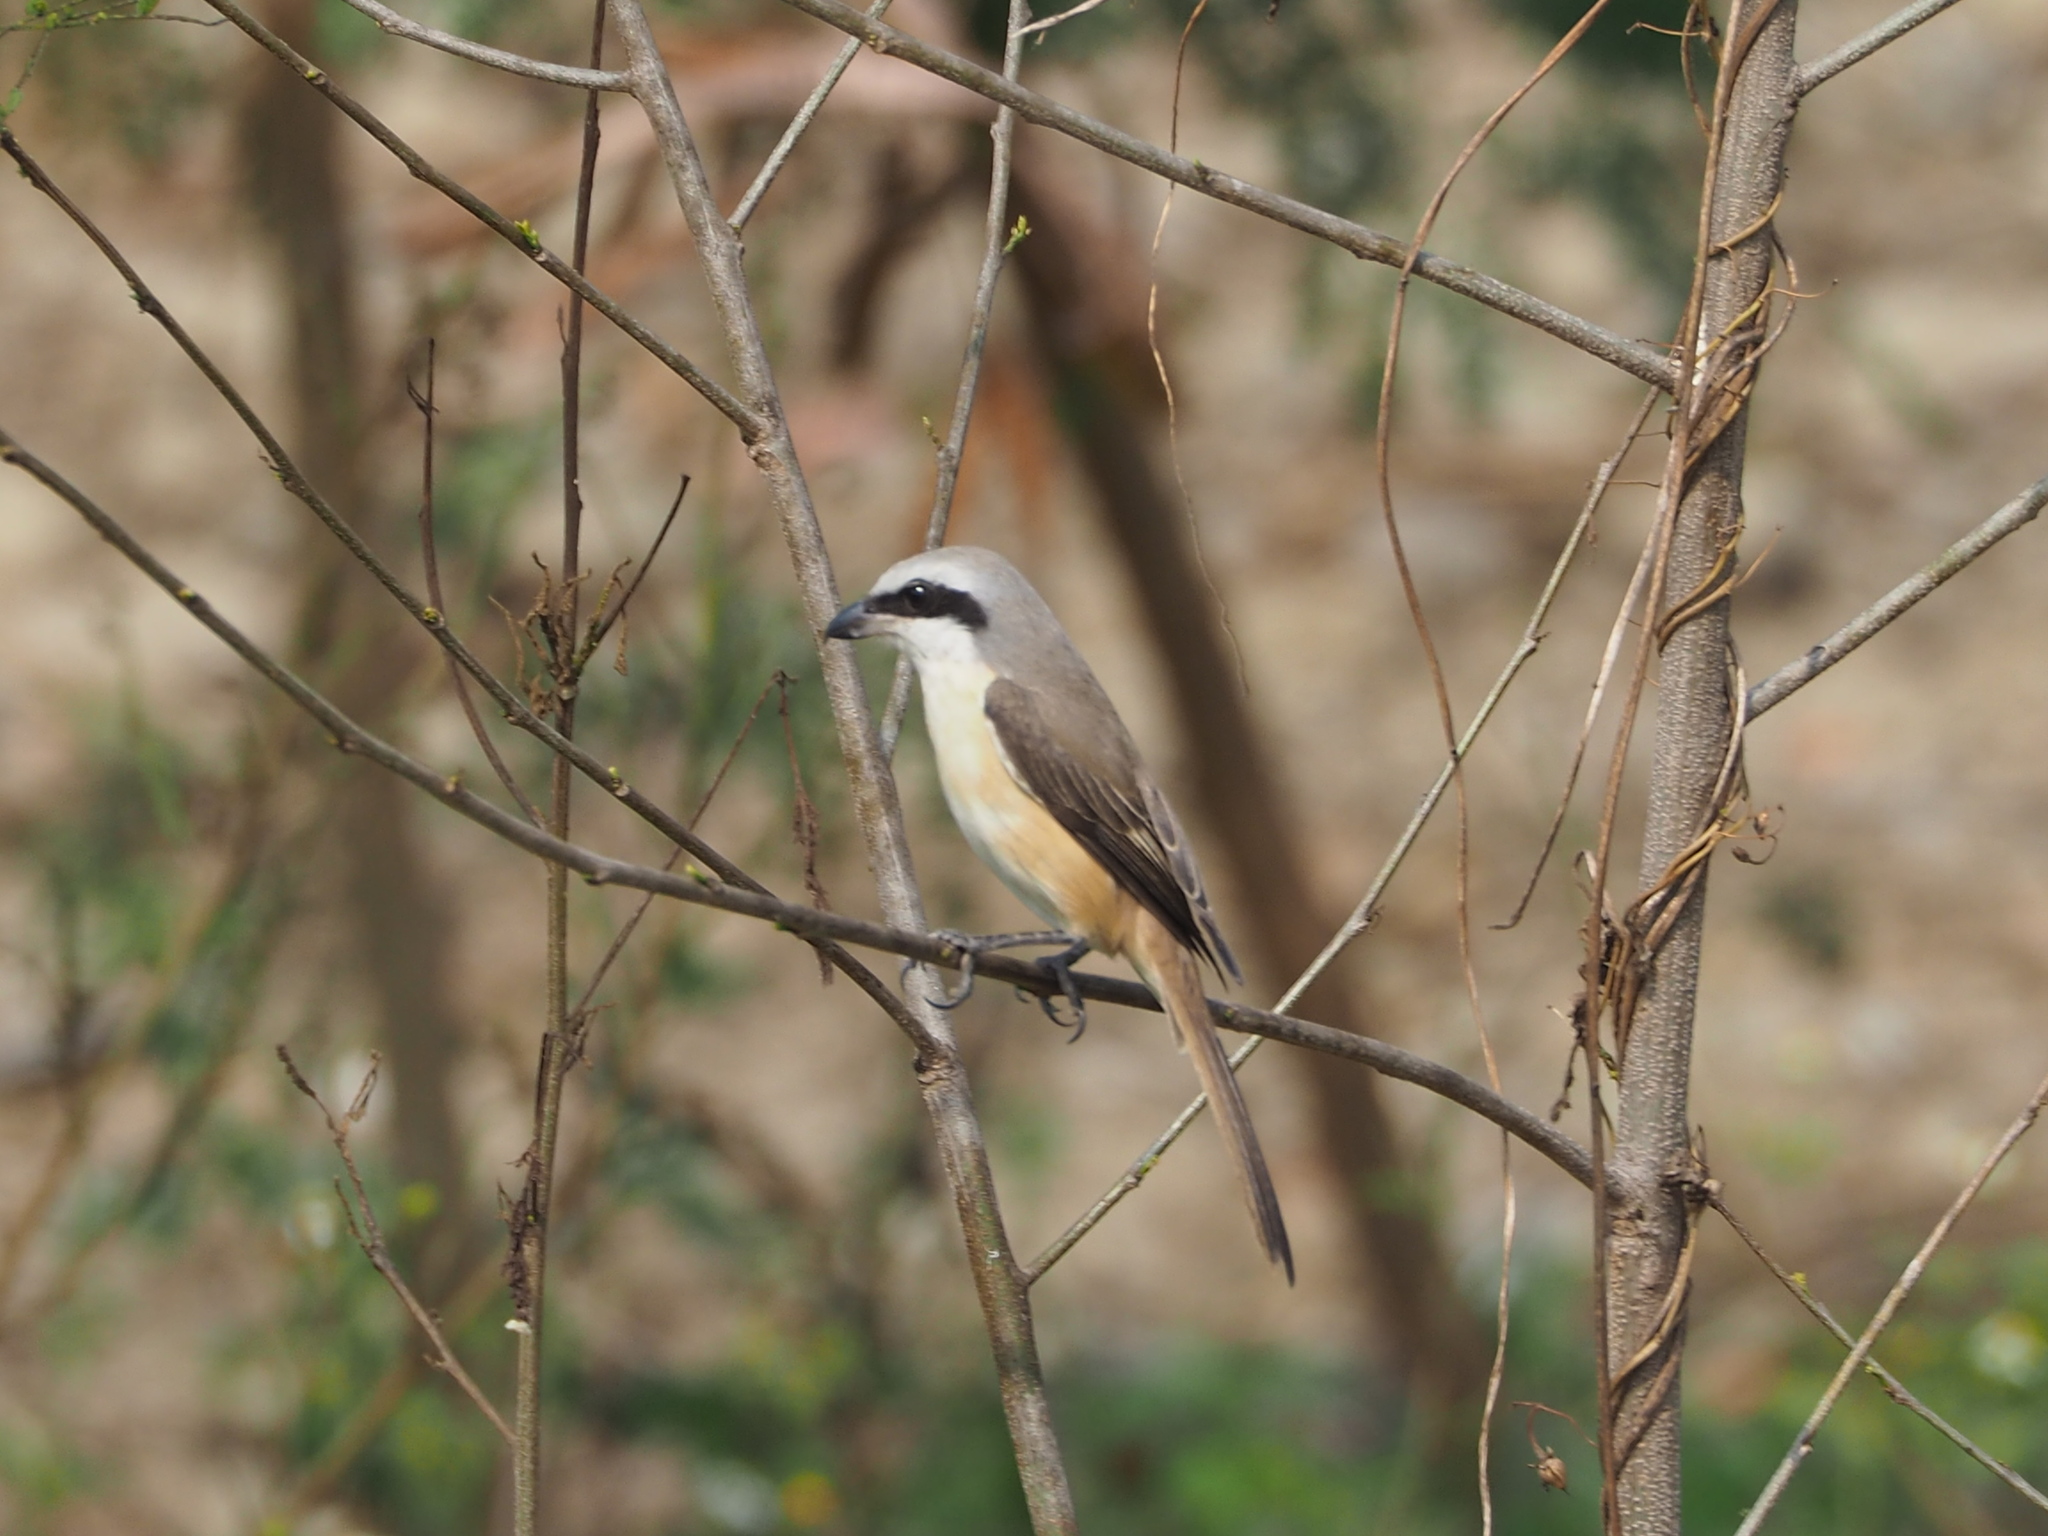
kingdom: Animalia
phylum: Chordata
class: Aves
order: Passeriformes
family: Laniidae
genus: Lanius
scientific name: Lanius cristatus
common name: Brown shrike
